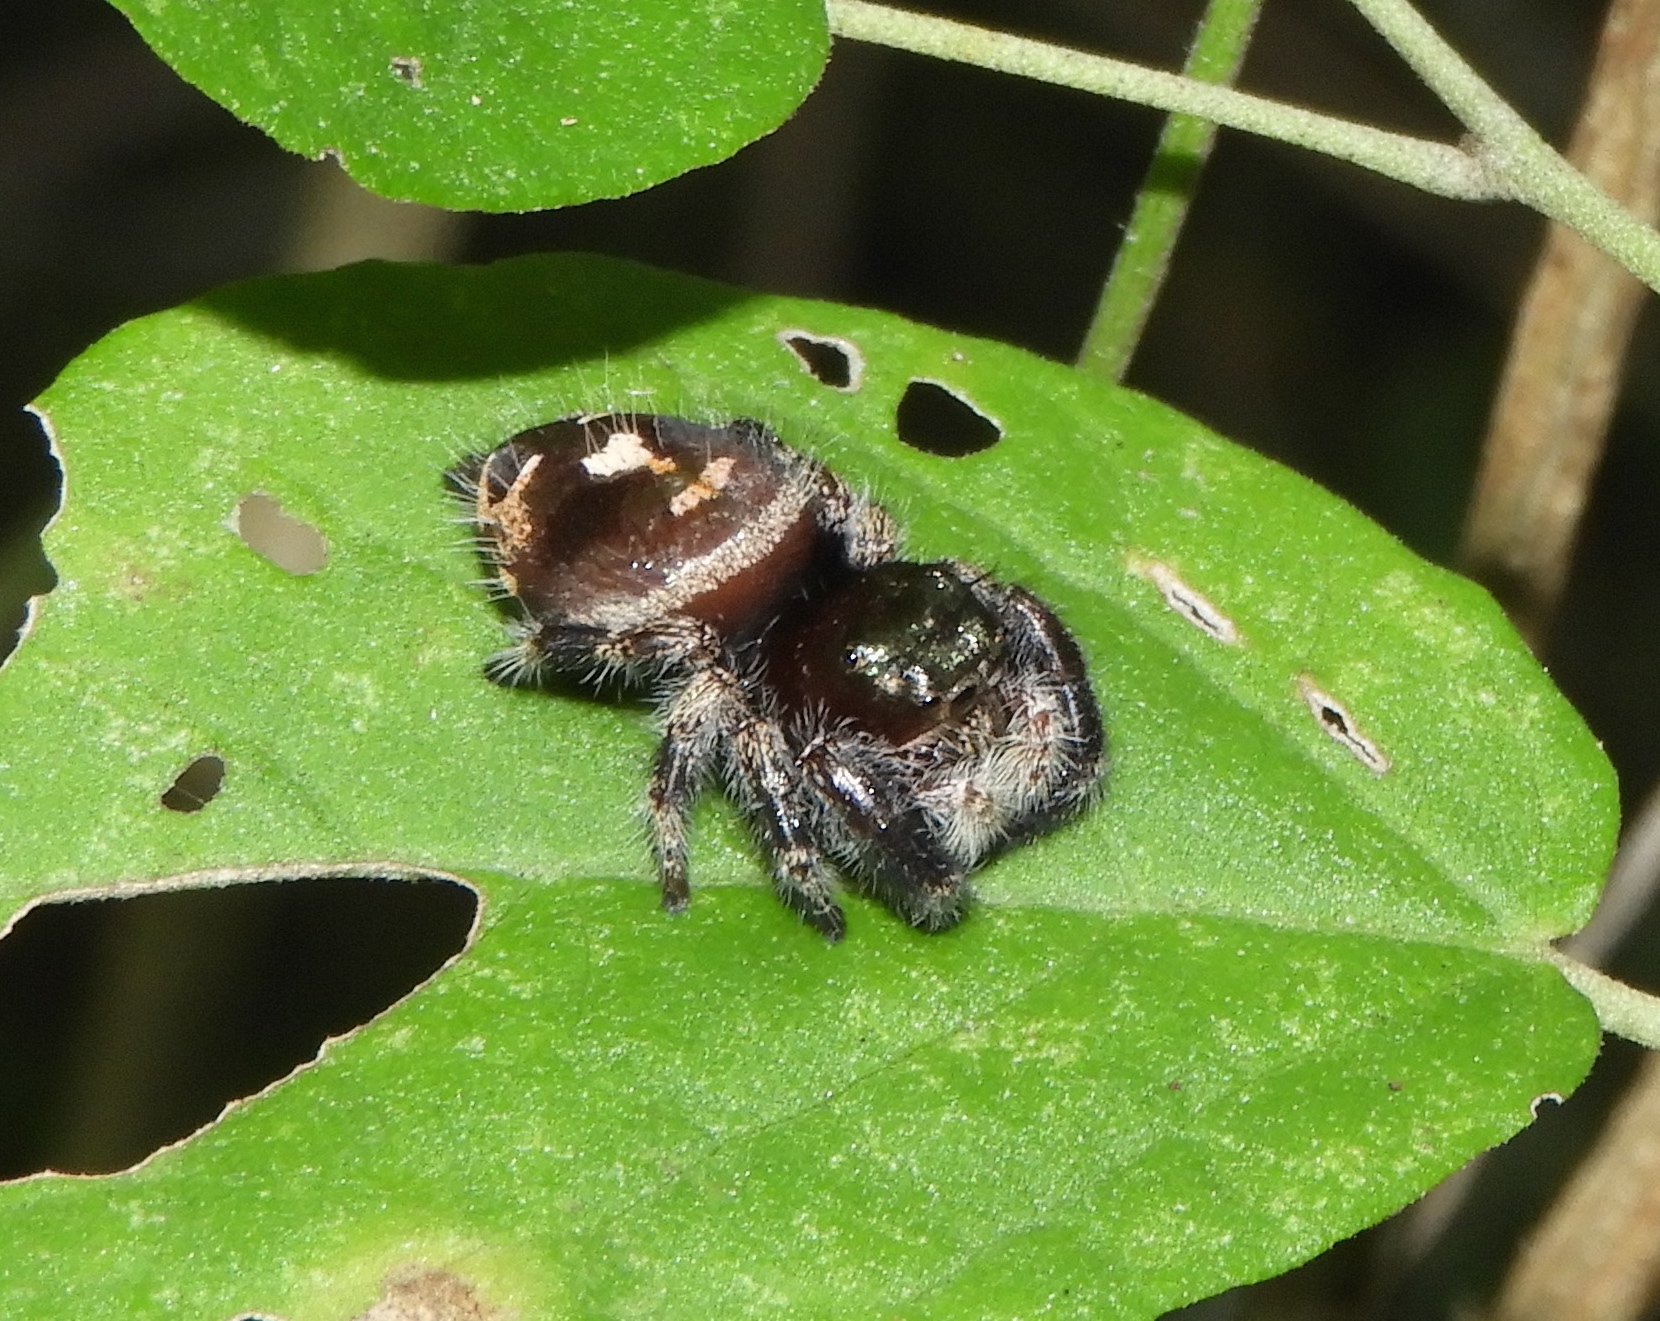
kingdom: Animalia
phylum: Arthropoda
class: Arachnida
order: Araneae
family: Salticidae
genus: Phidippus
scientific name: Phidippus maddisoni
